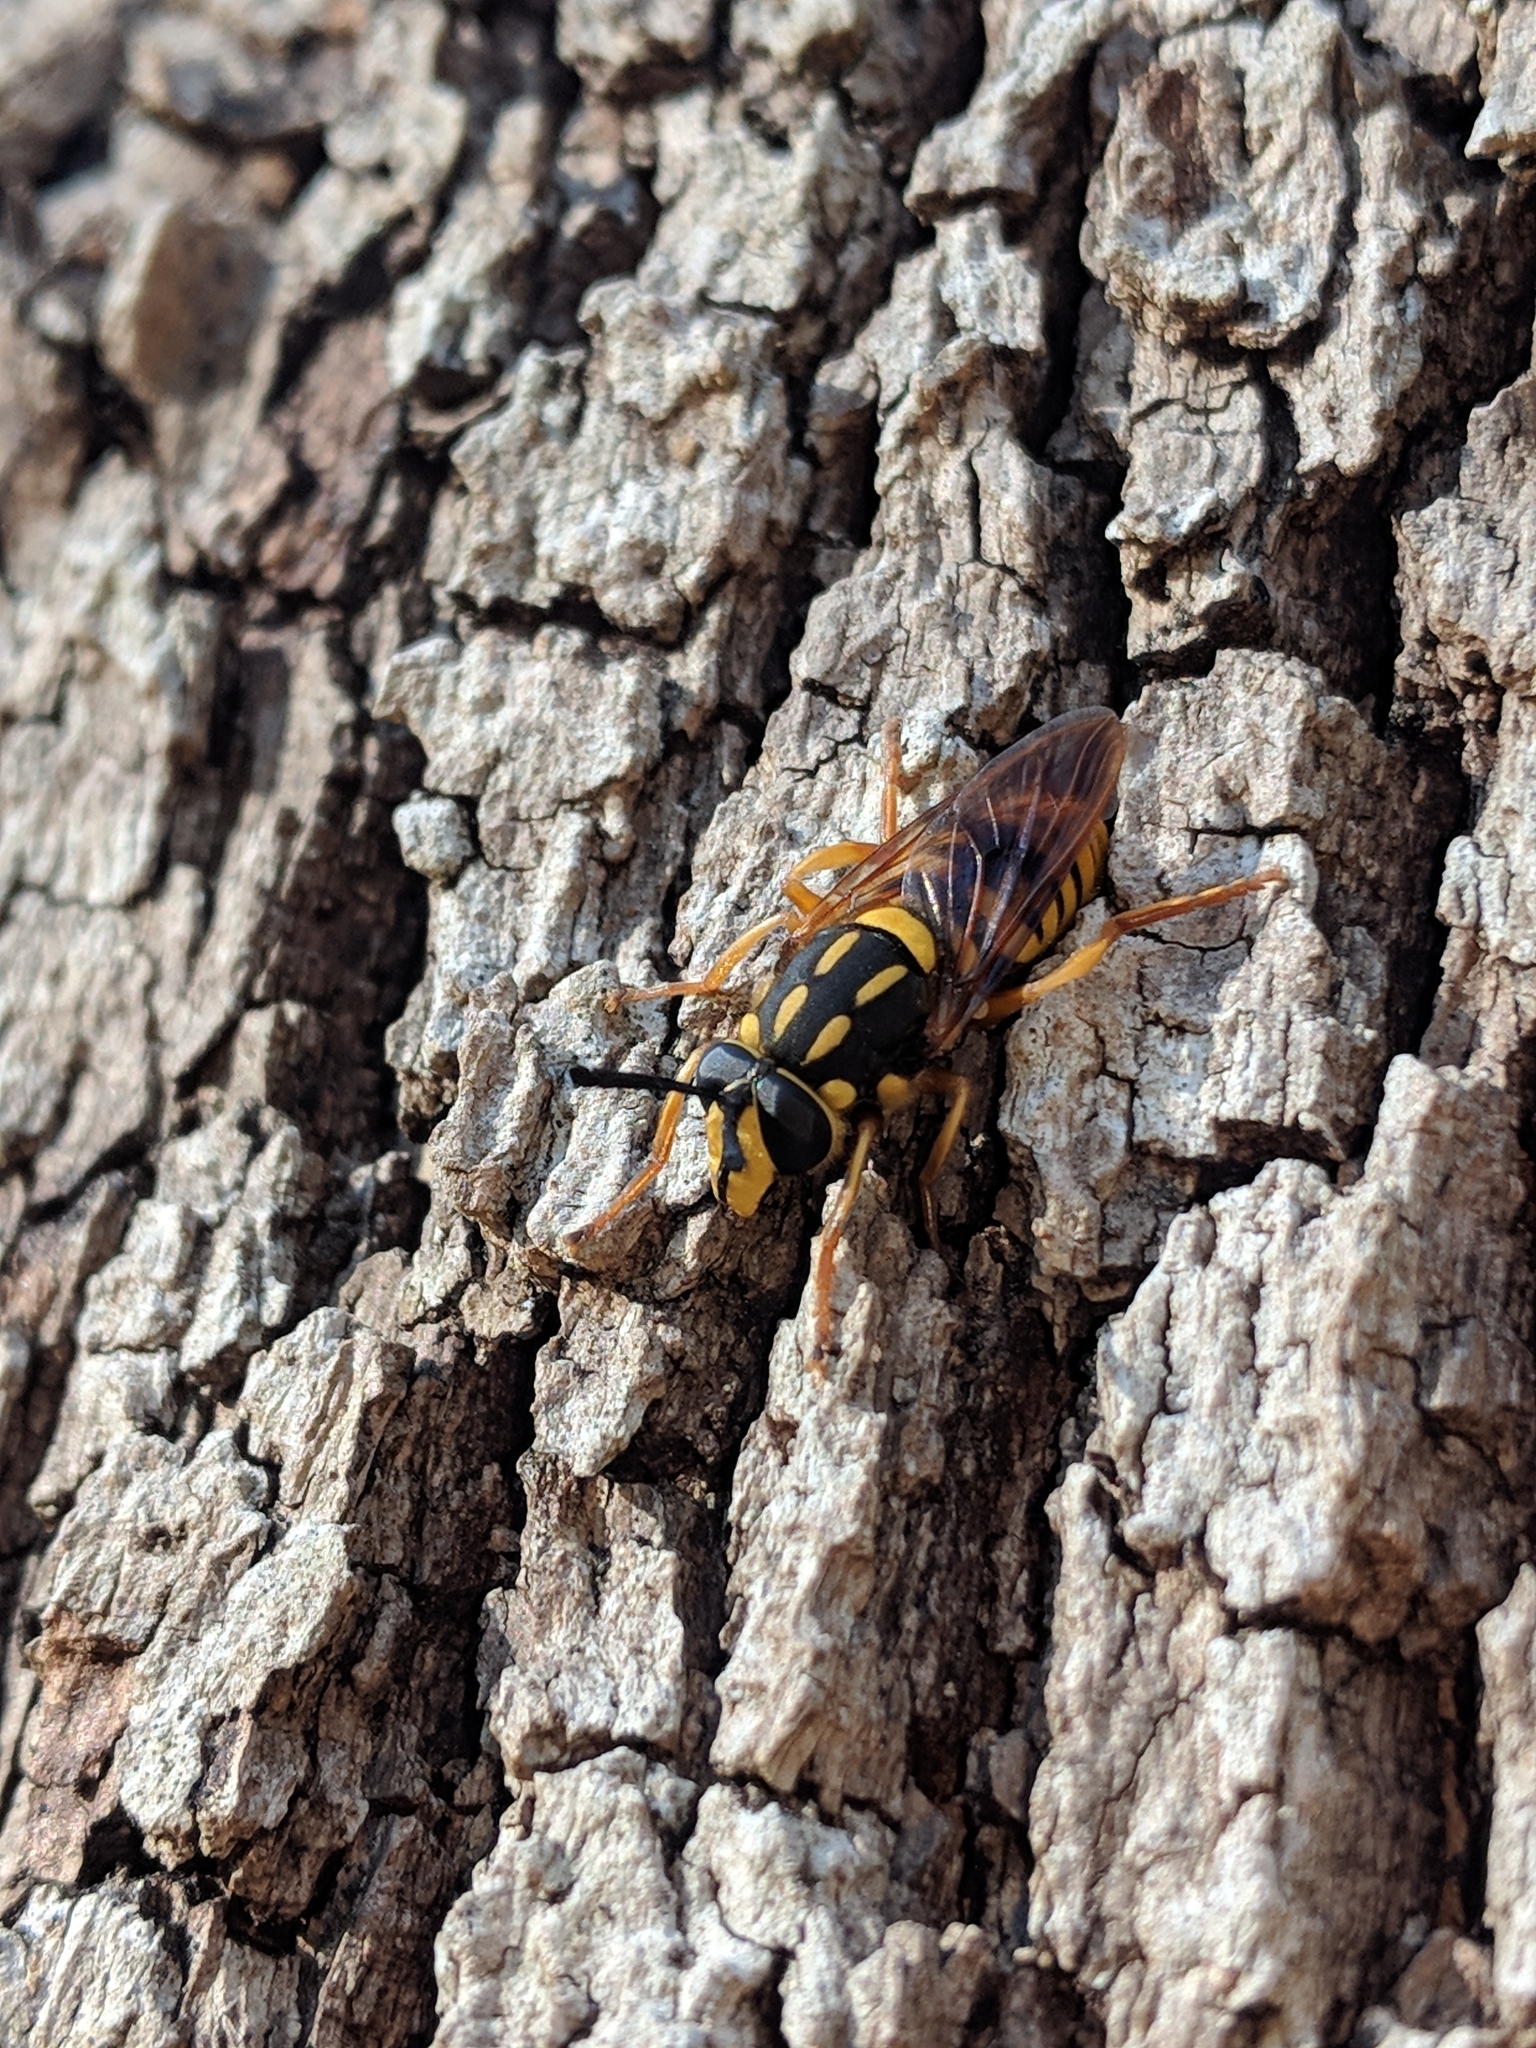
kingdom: Animalia
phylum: Arthropoda
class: Insecta
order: Diptera
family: Syrphidae
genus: Sphecomyia
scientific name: Sphecomyia vittata
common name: Long-horned yellowjacket fly
